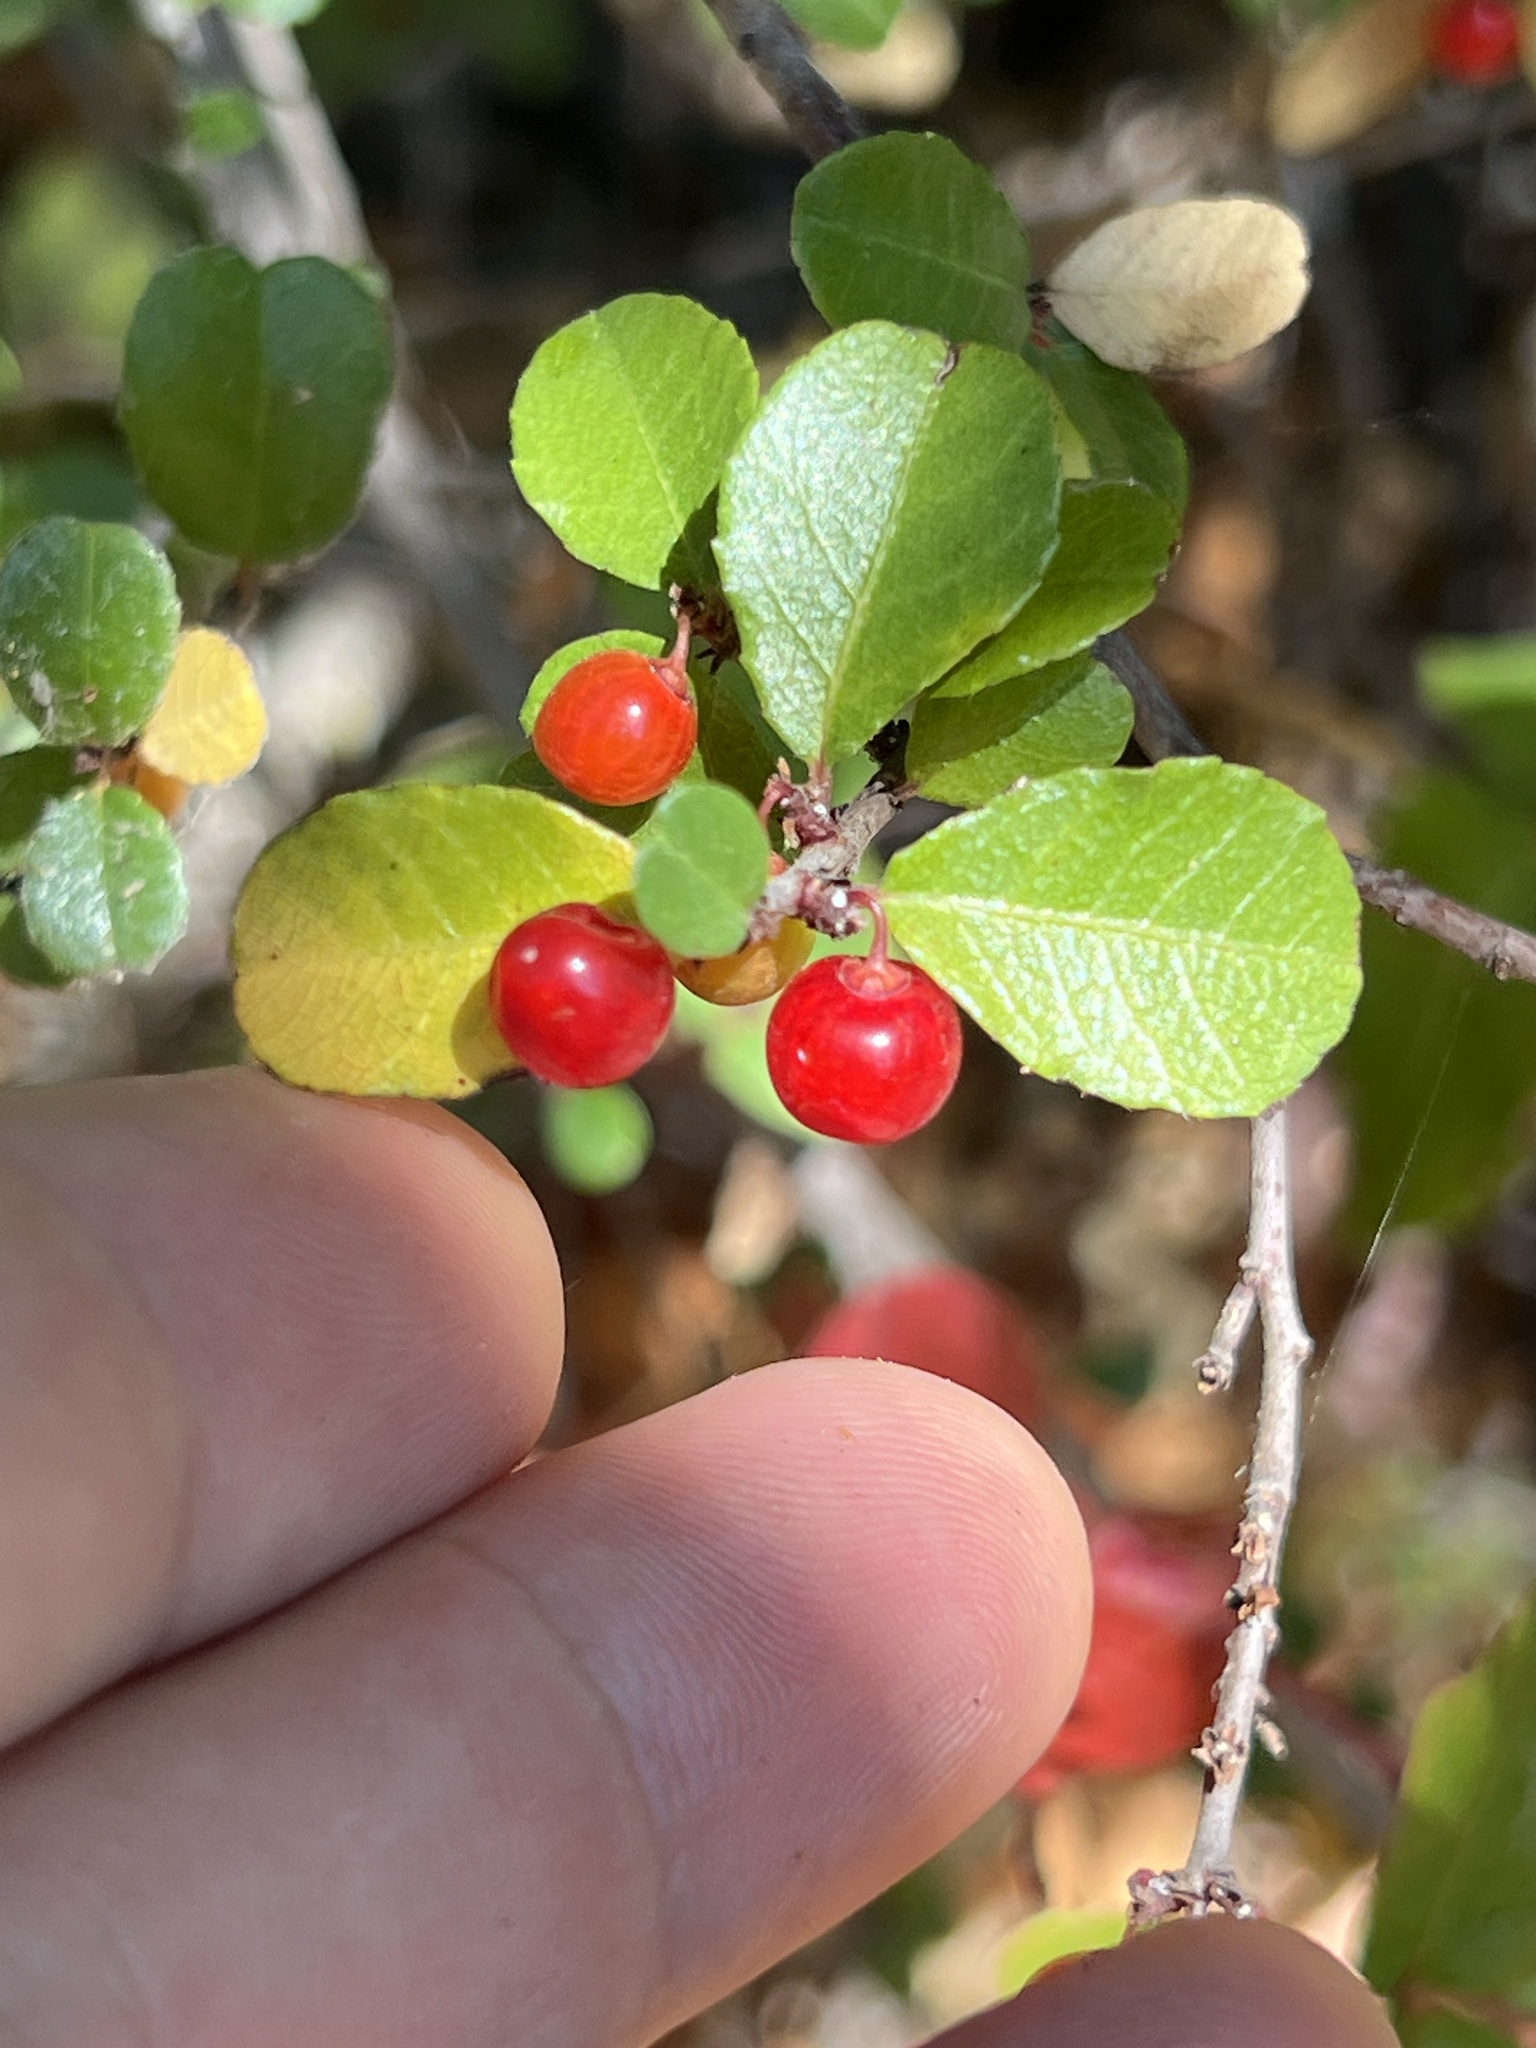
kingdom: Plantae
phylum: Tracheophyta
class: Magnoliopsida
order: Rosales
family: Rhamnaceae
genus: Endotropis
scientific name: Endotropis crocea
